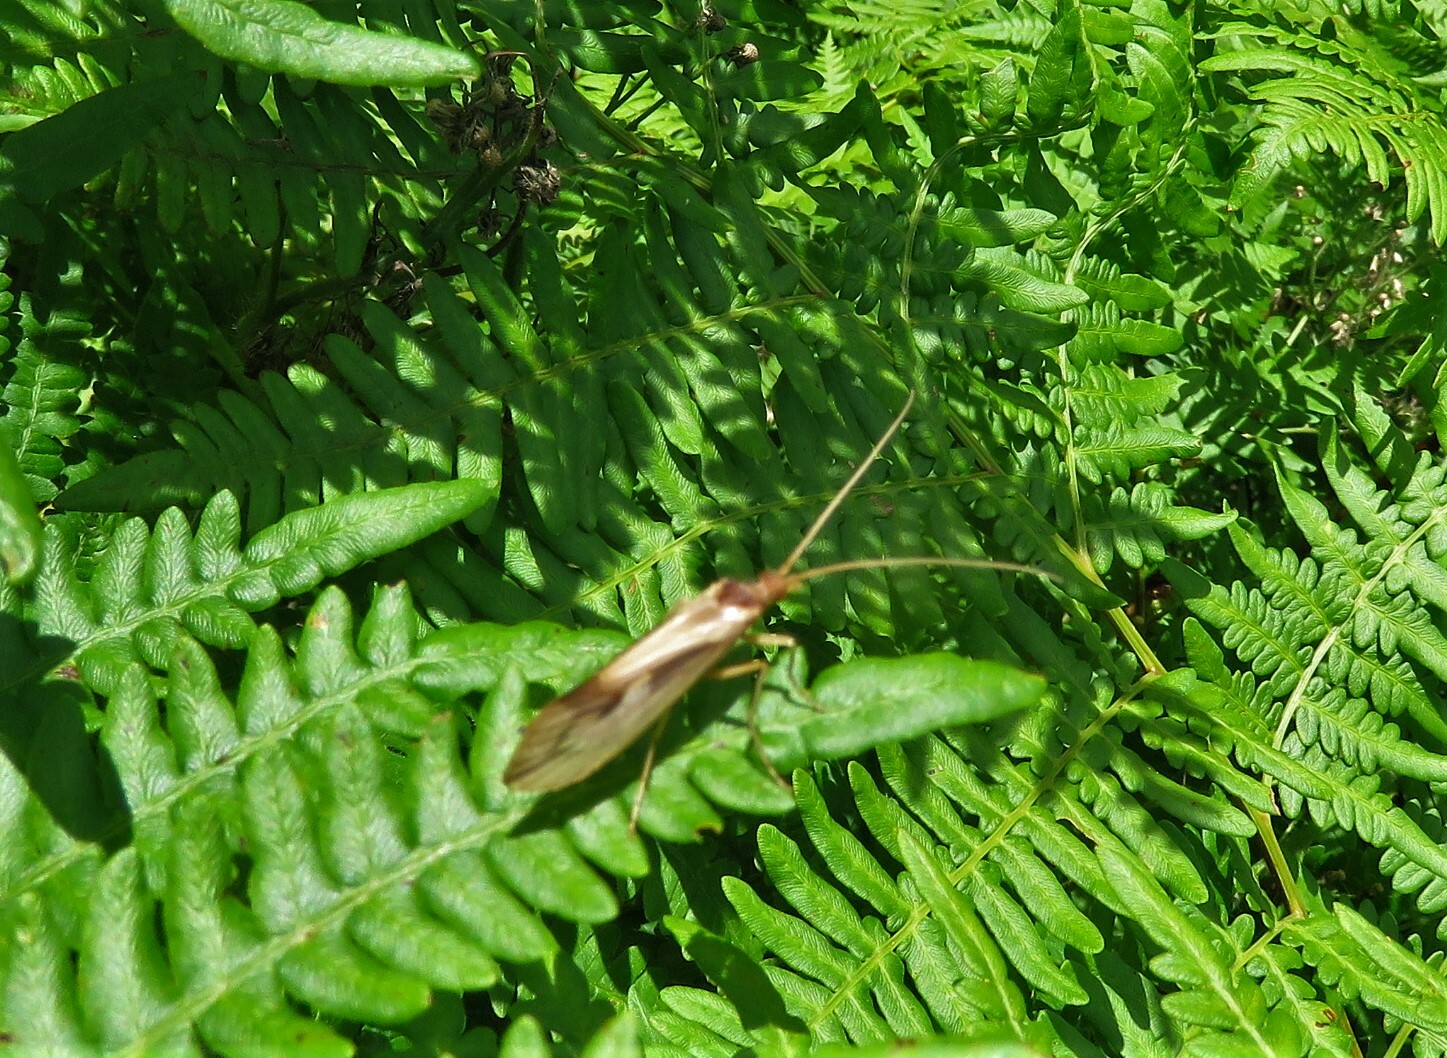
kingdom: Animalia
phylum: Arthropoda
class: Insecta
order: Trichoptera
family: Limnephilidae
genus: Platycentropus
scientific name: Platycentropus radiatus
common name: Chocolate-and-cream sedge
